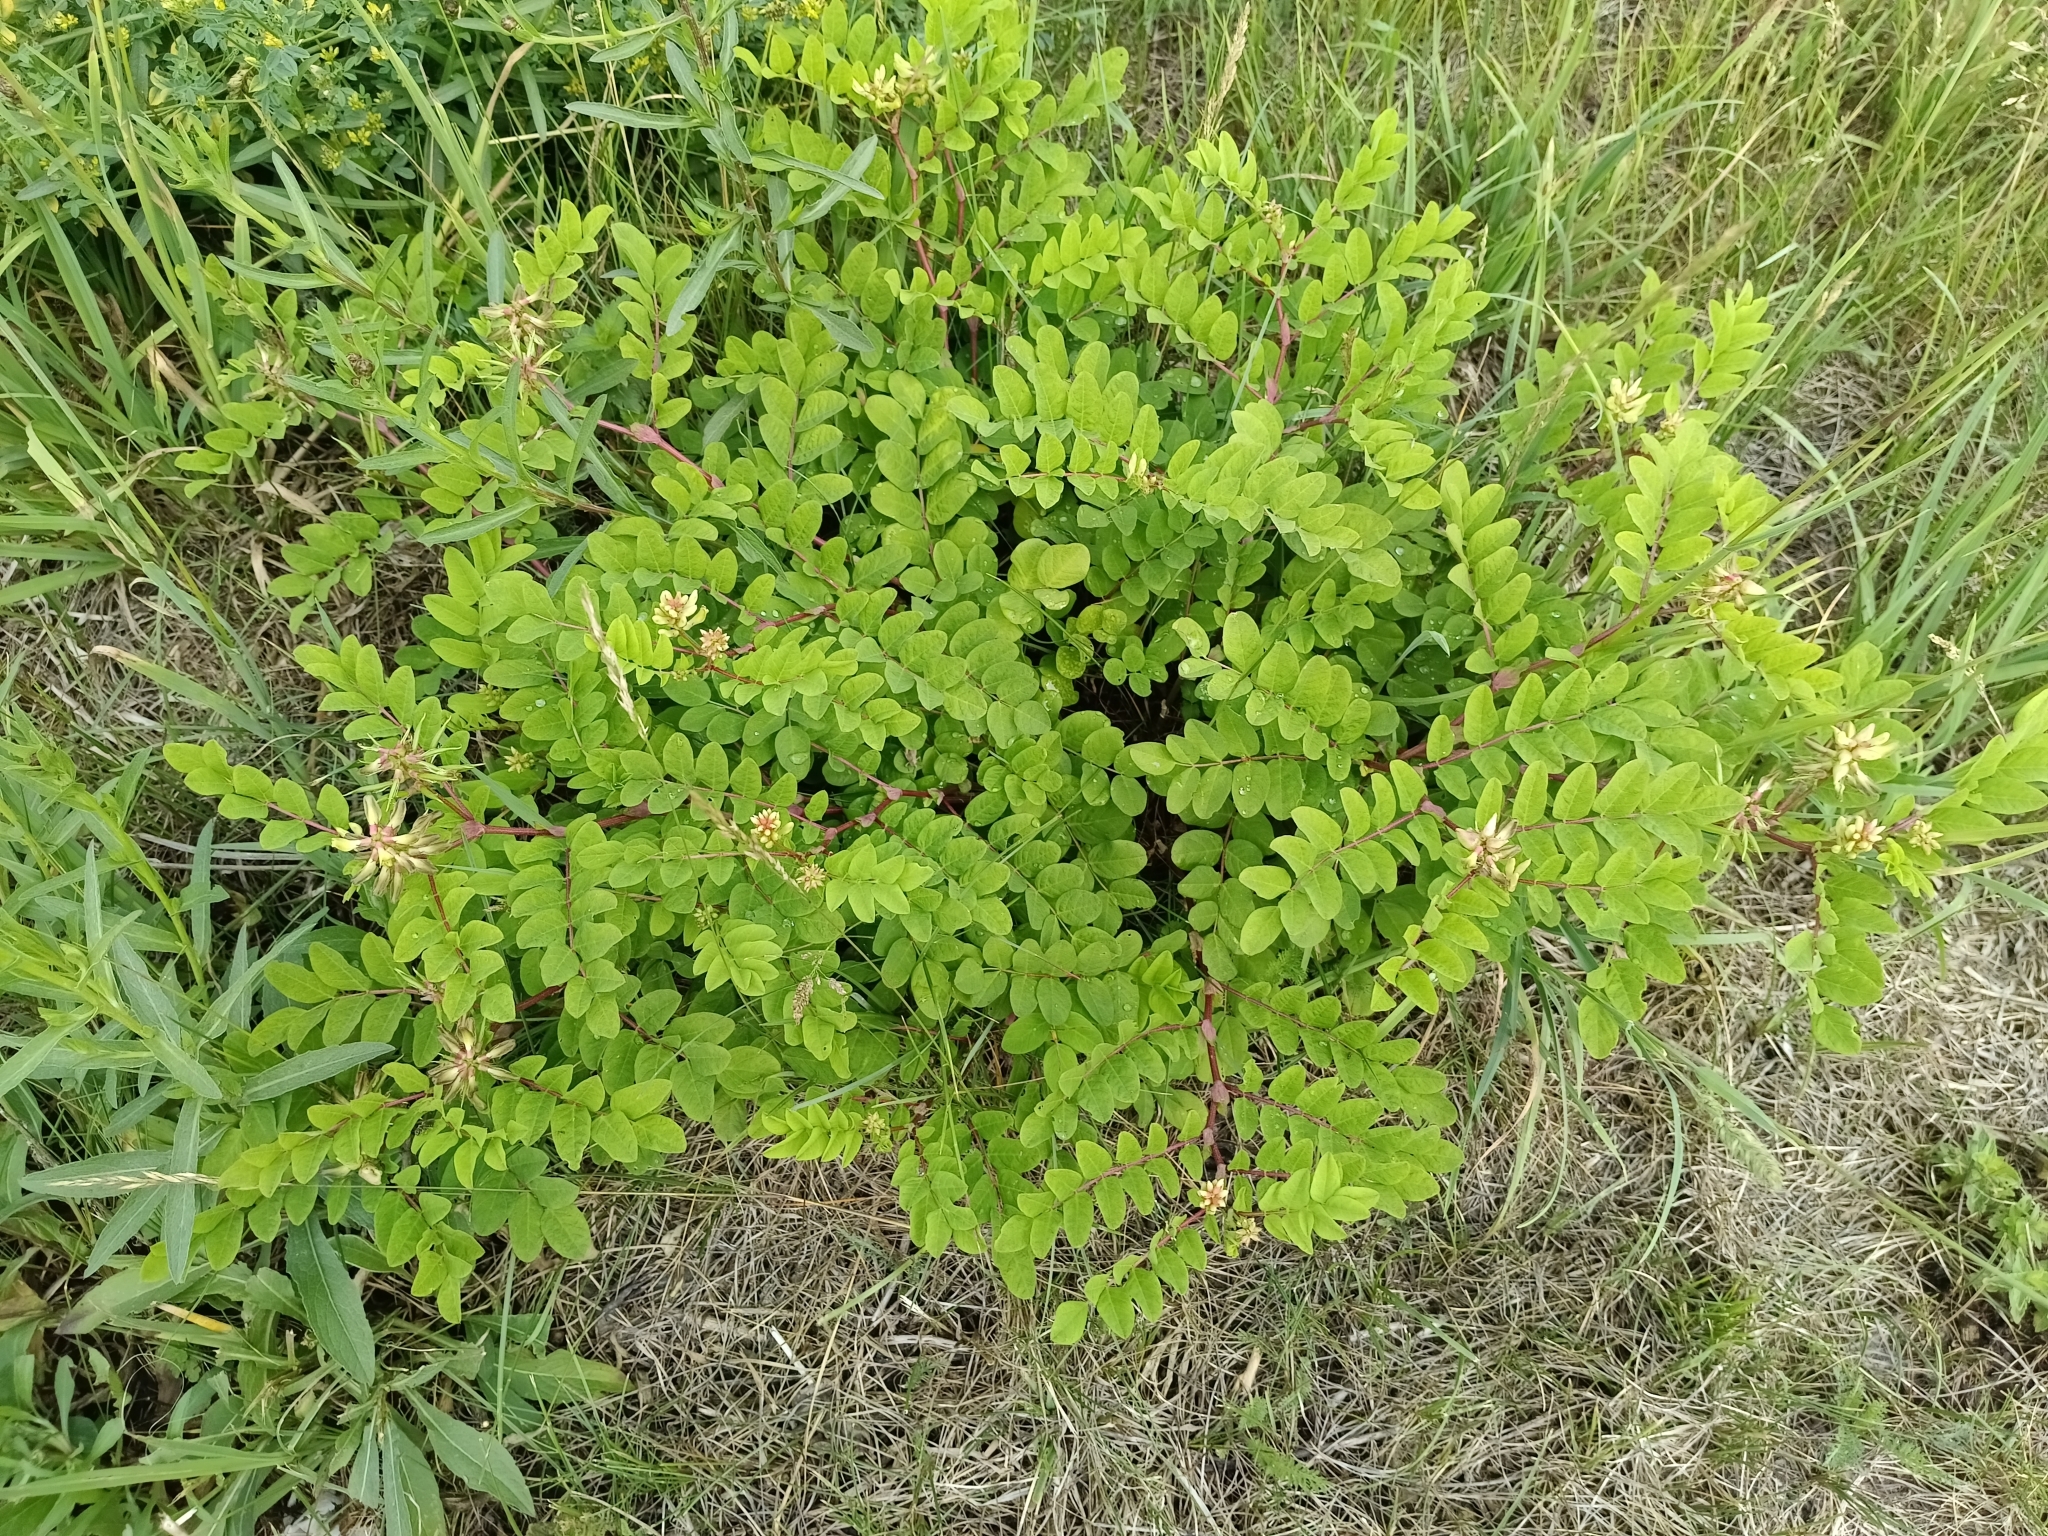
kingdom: Plantae
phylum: Tracheophyta
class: Magnoliopsida
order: Fabales
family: Fabaceae
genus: Astragalus
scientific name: Astragalus glycyphyllos
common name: Wild liquorice
